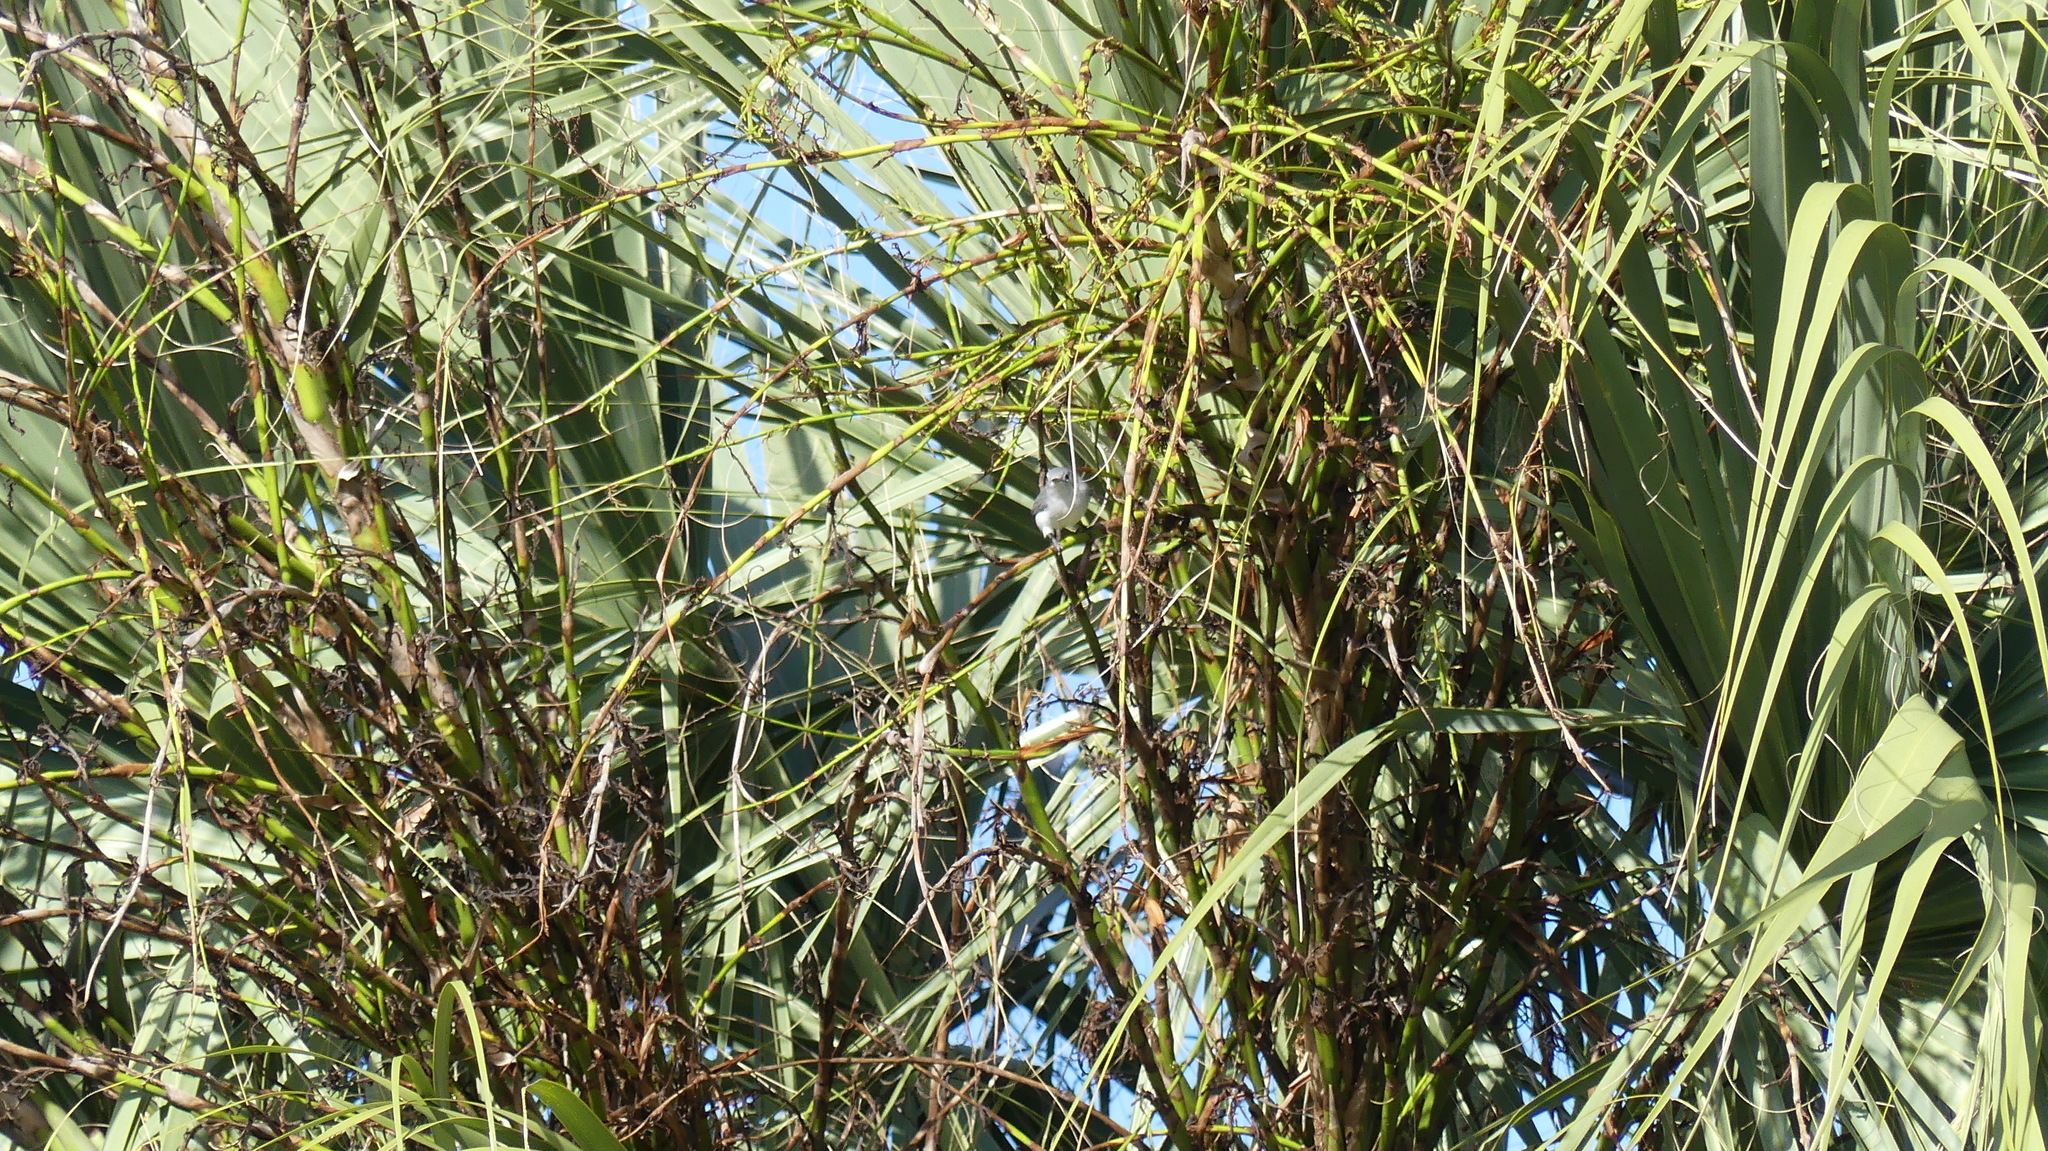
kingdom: Animalia
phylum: Chordata
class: Aves
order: Passeriformes
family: Polioptilidae
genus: Polioptila
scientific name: Polioptila caerulea
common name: Blue-gray gnatcatcher
